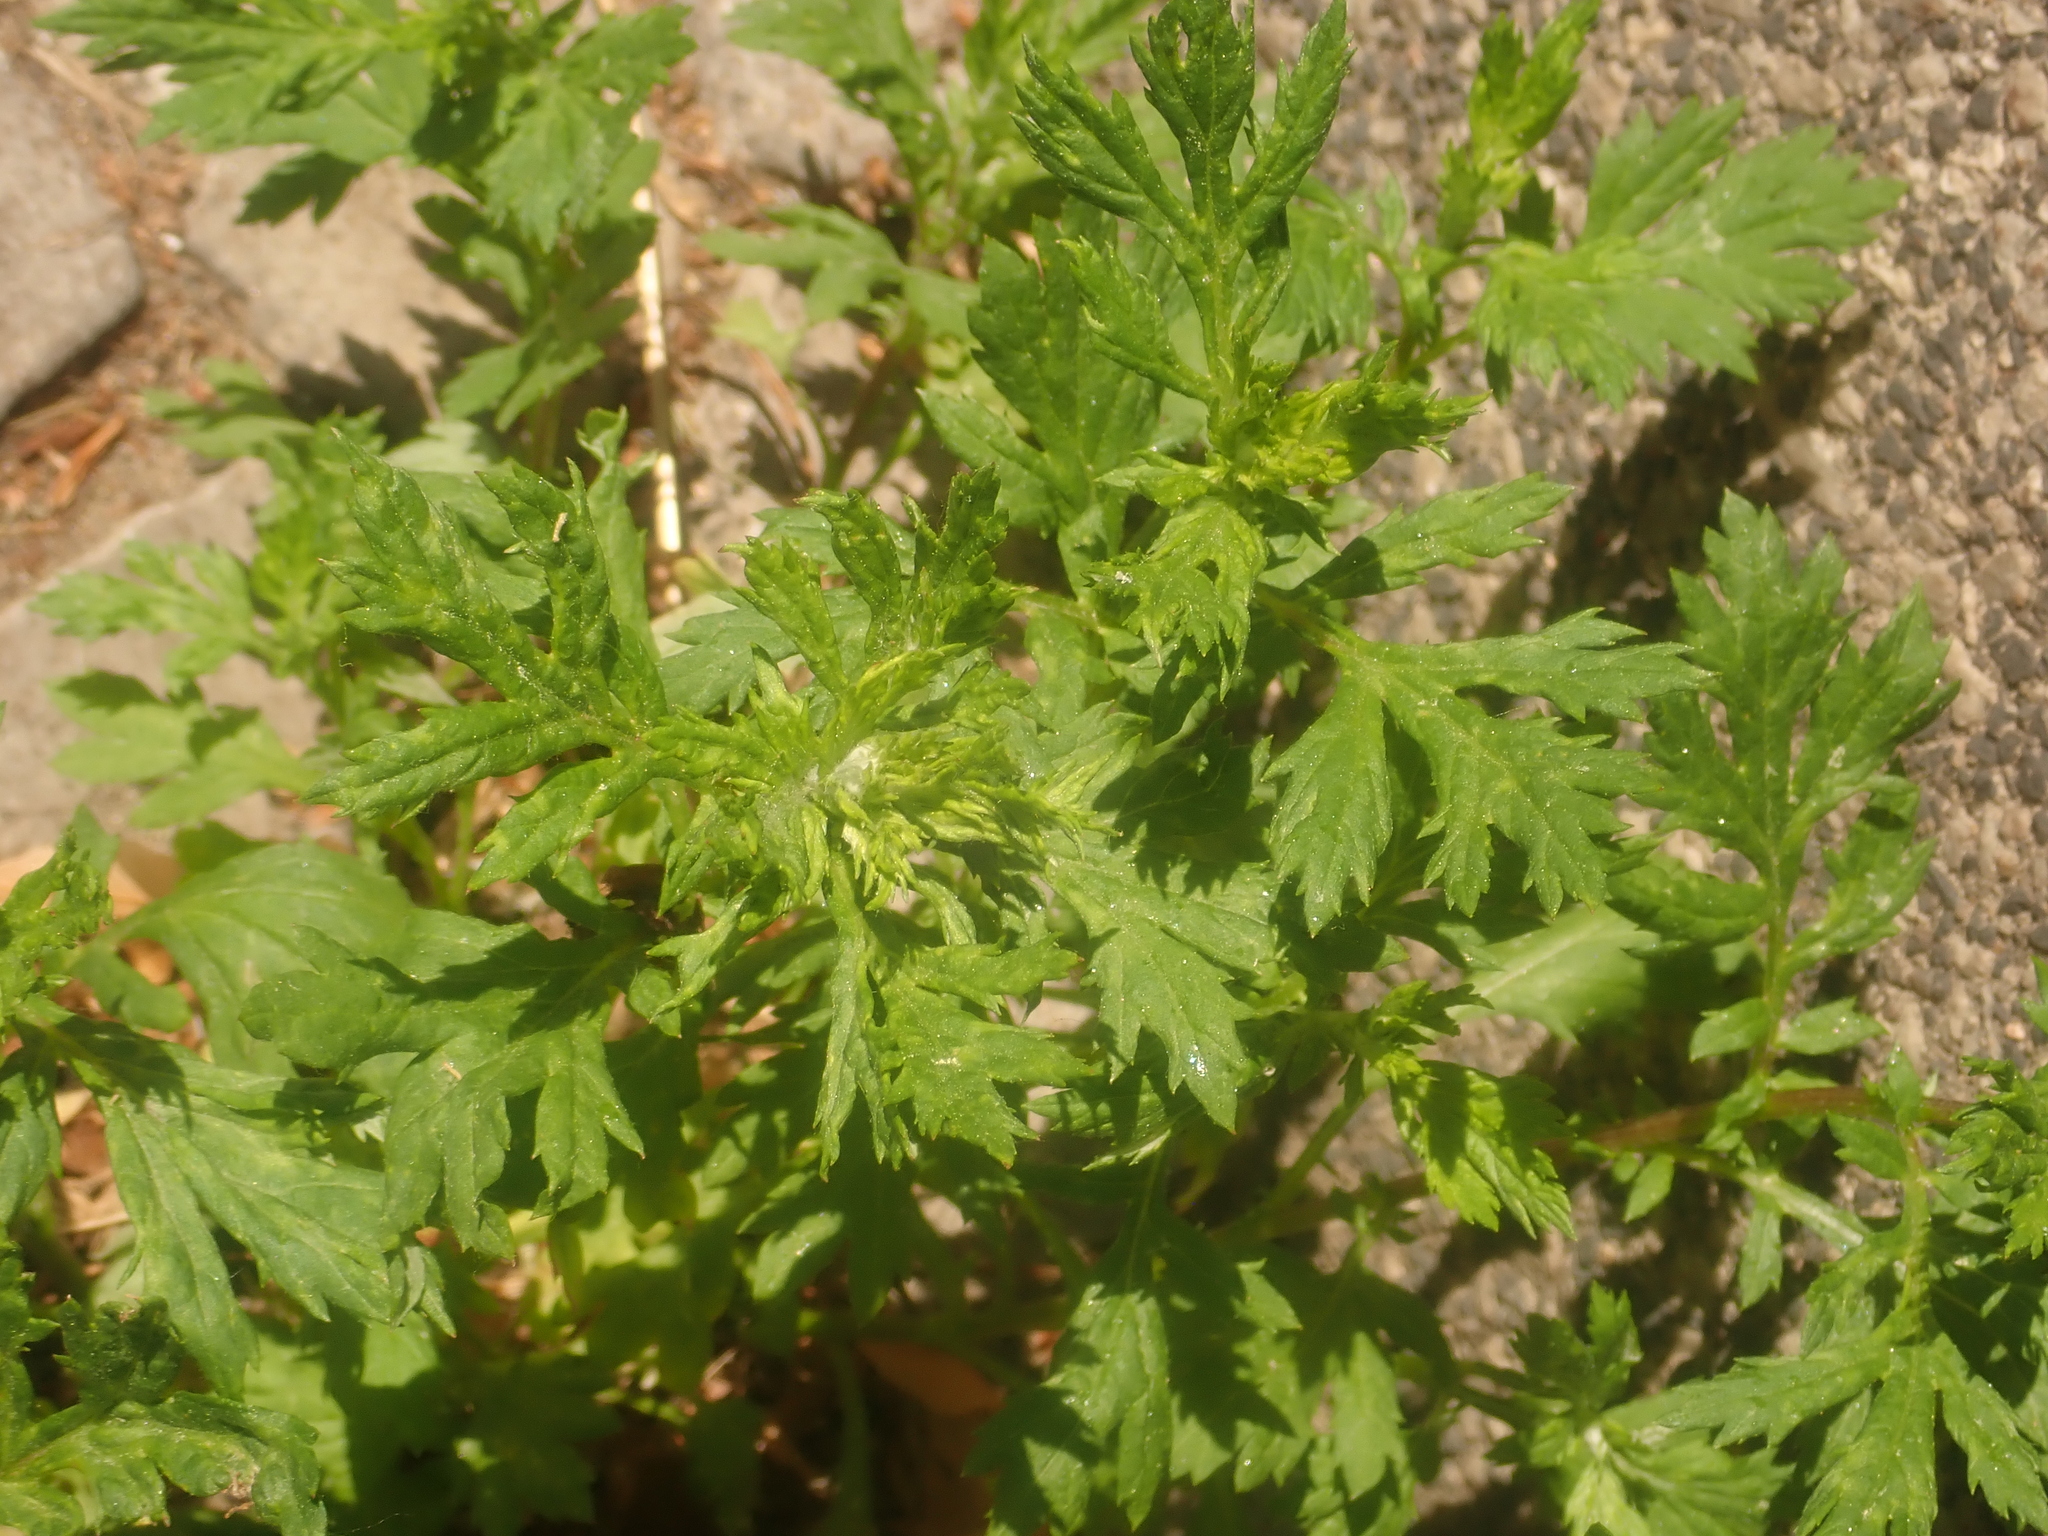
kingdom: Plantae
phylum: Tracheophyta
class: Magnoliopsida
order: Asterales
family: Asteraceae
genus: Artemisia
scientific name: Artemisia vulgaris
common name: Mugwort
